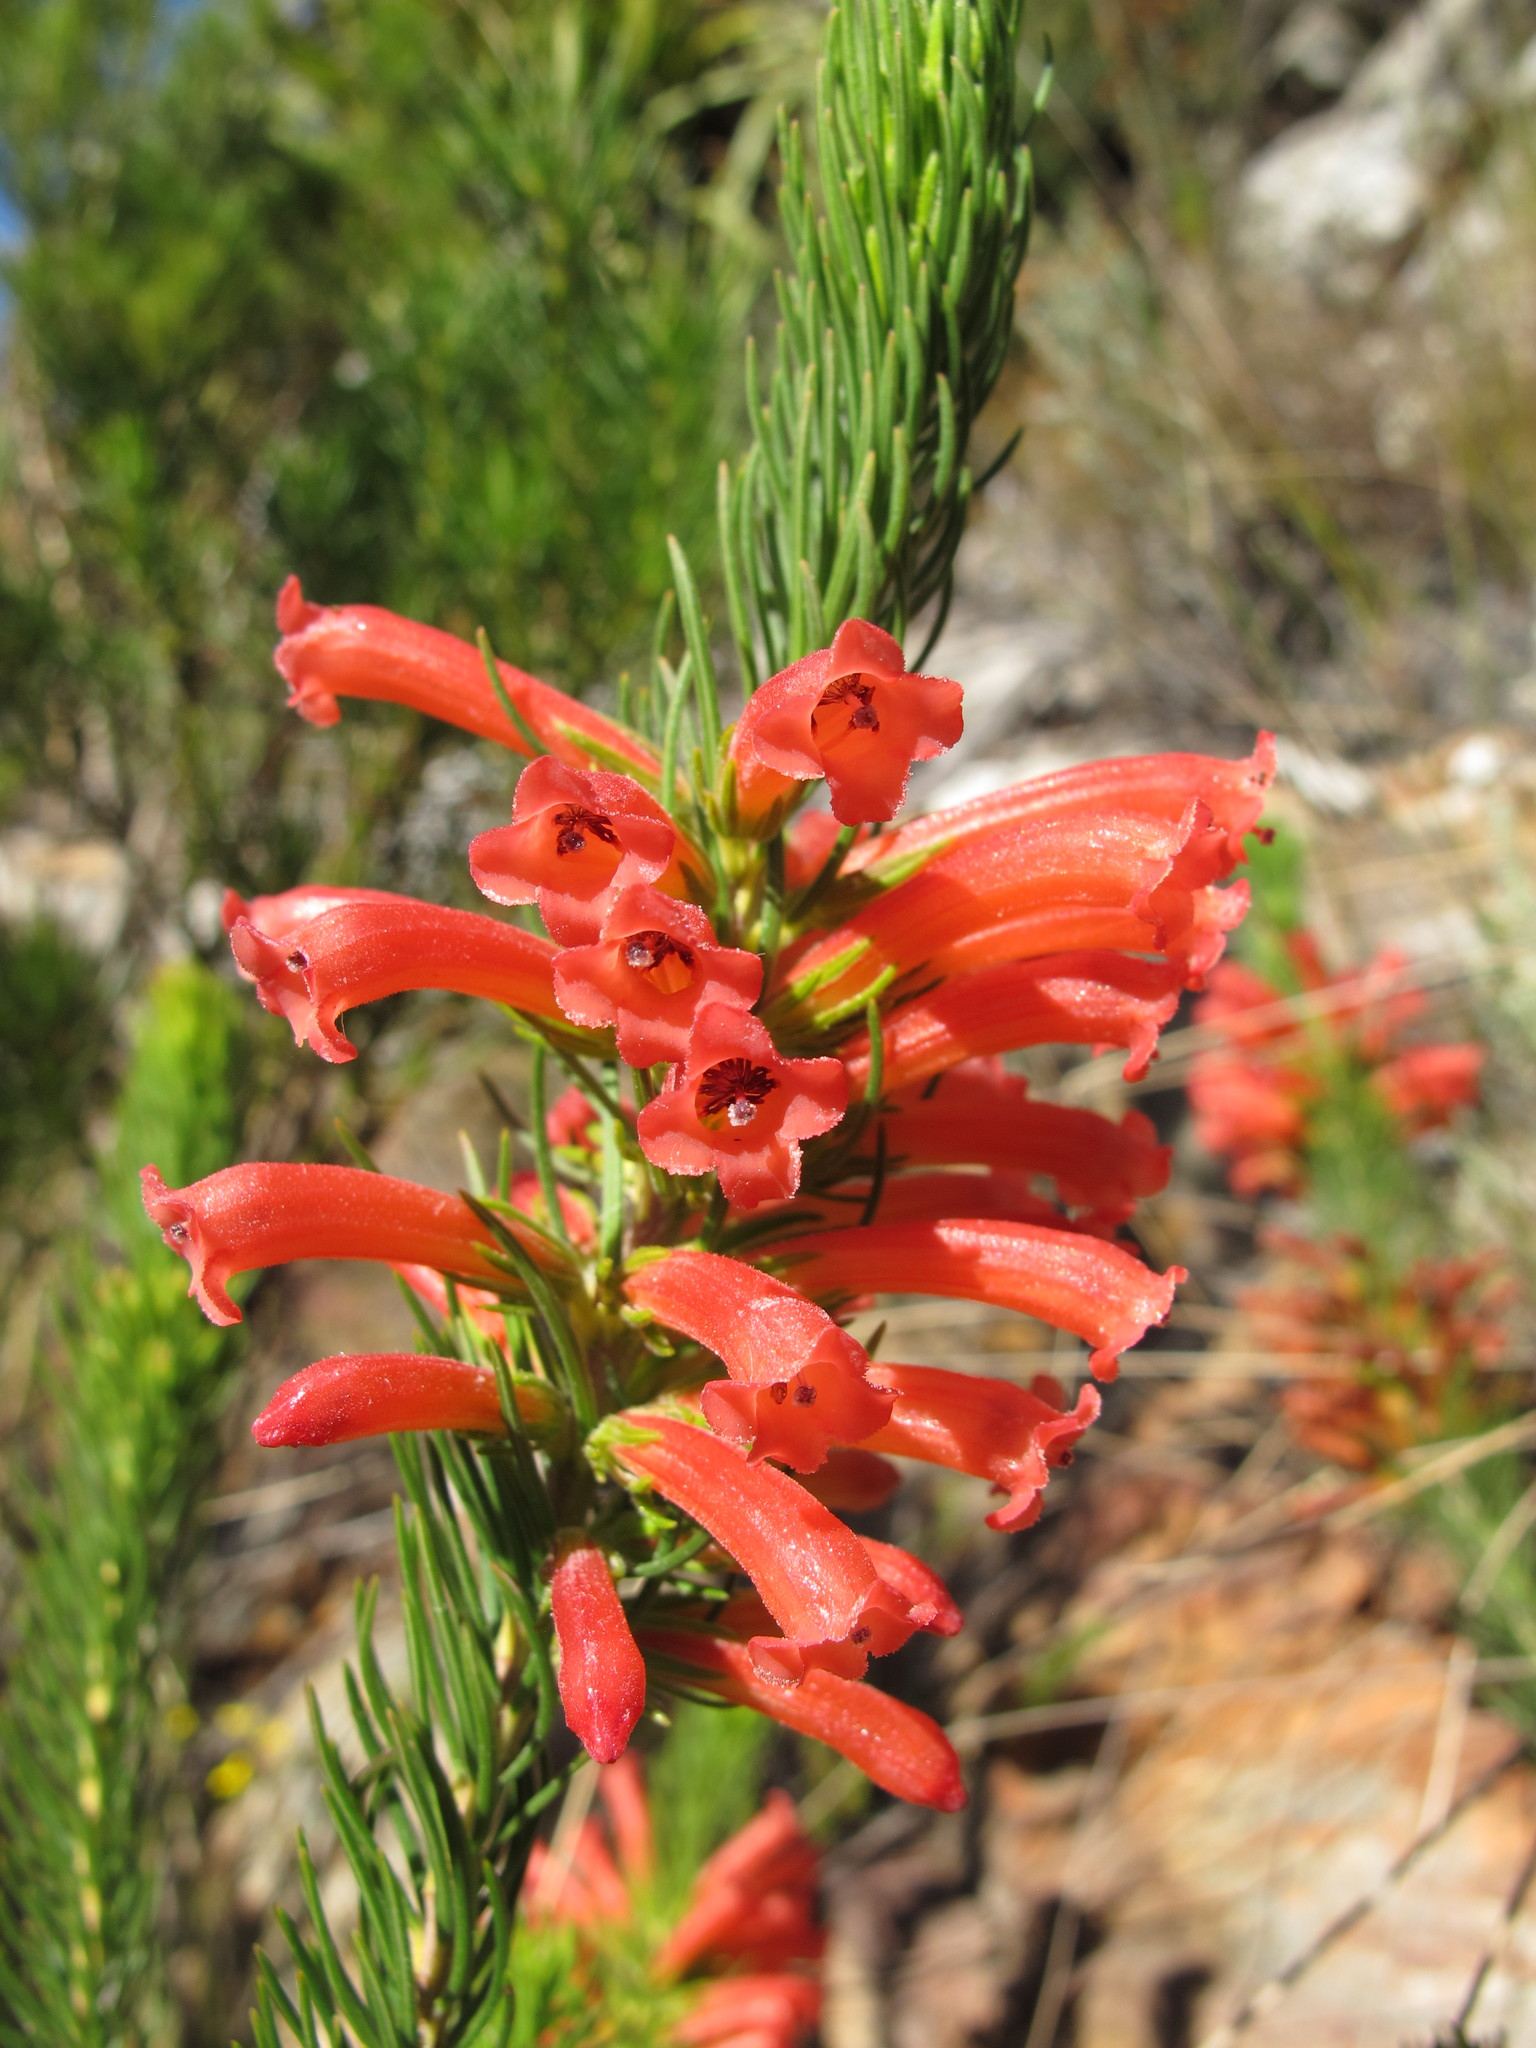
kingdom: Plantae
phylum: Tracheophyta
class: Magnoliopsida
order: Ericales
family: Ericaceae
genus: Erica
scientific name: Erica viscaria
